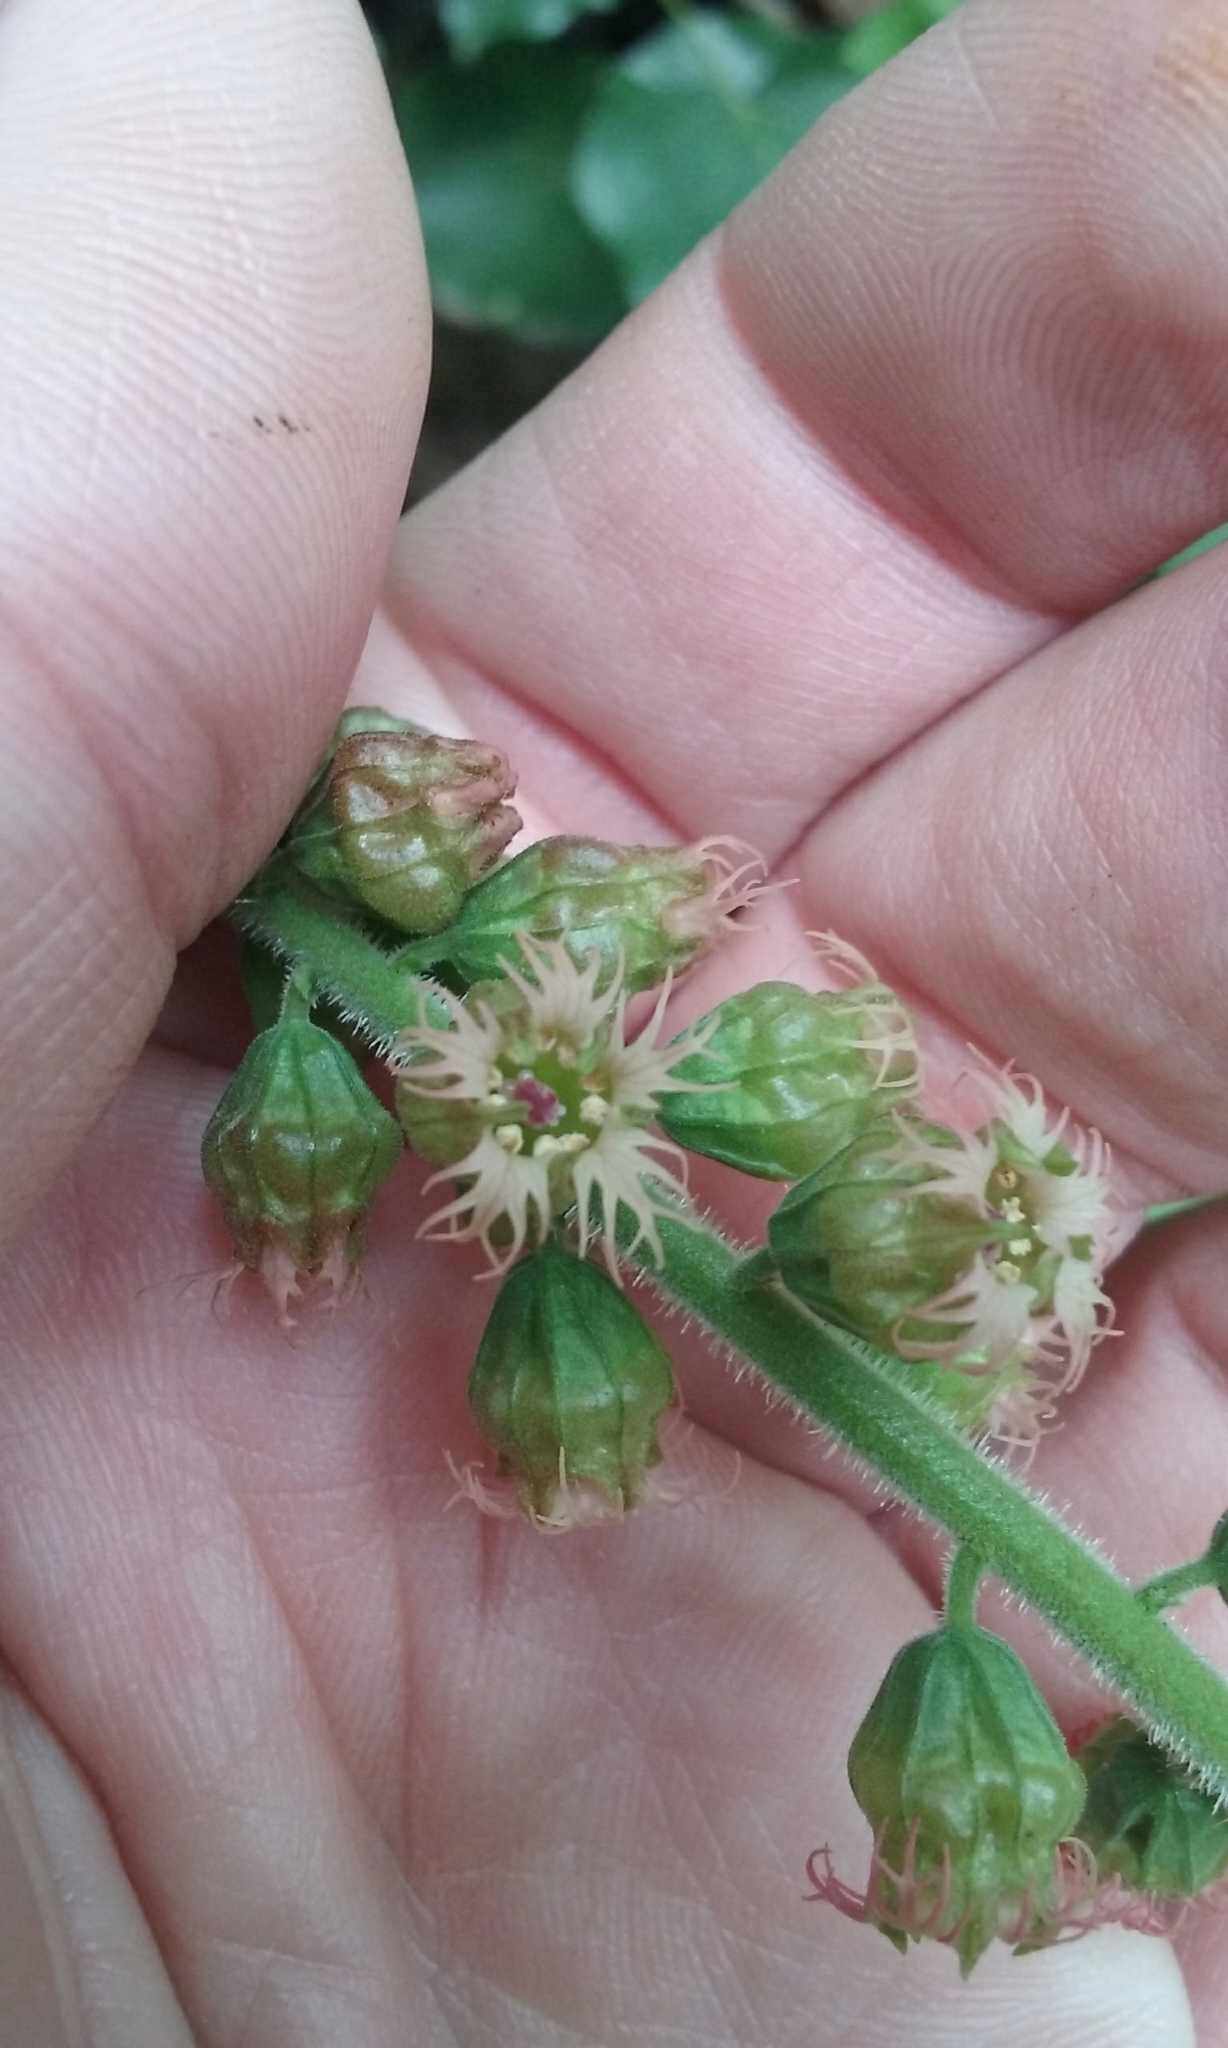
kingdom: Plantae
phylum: Tracheophyta
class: Magnoliopsida
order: Saxifragales
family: Saxifragaceae
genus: Tellima
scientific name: Tellima grandiflora
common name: Fringecups
